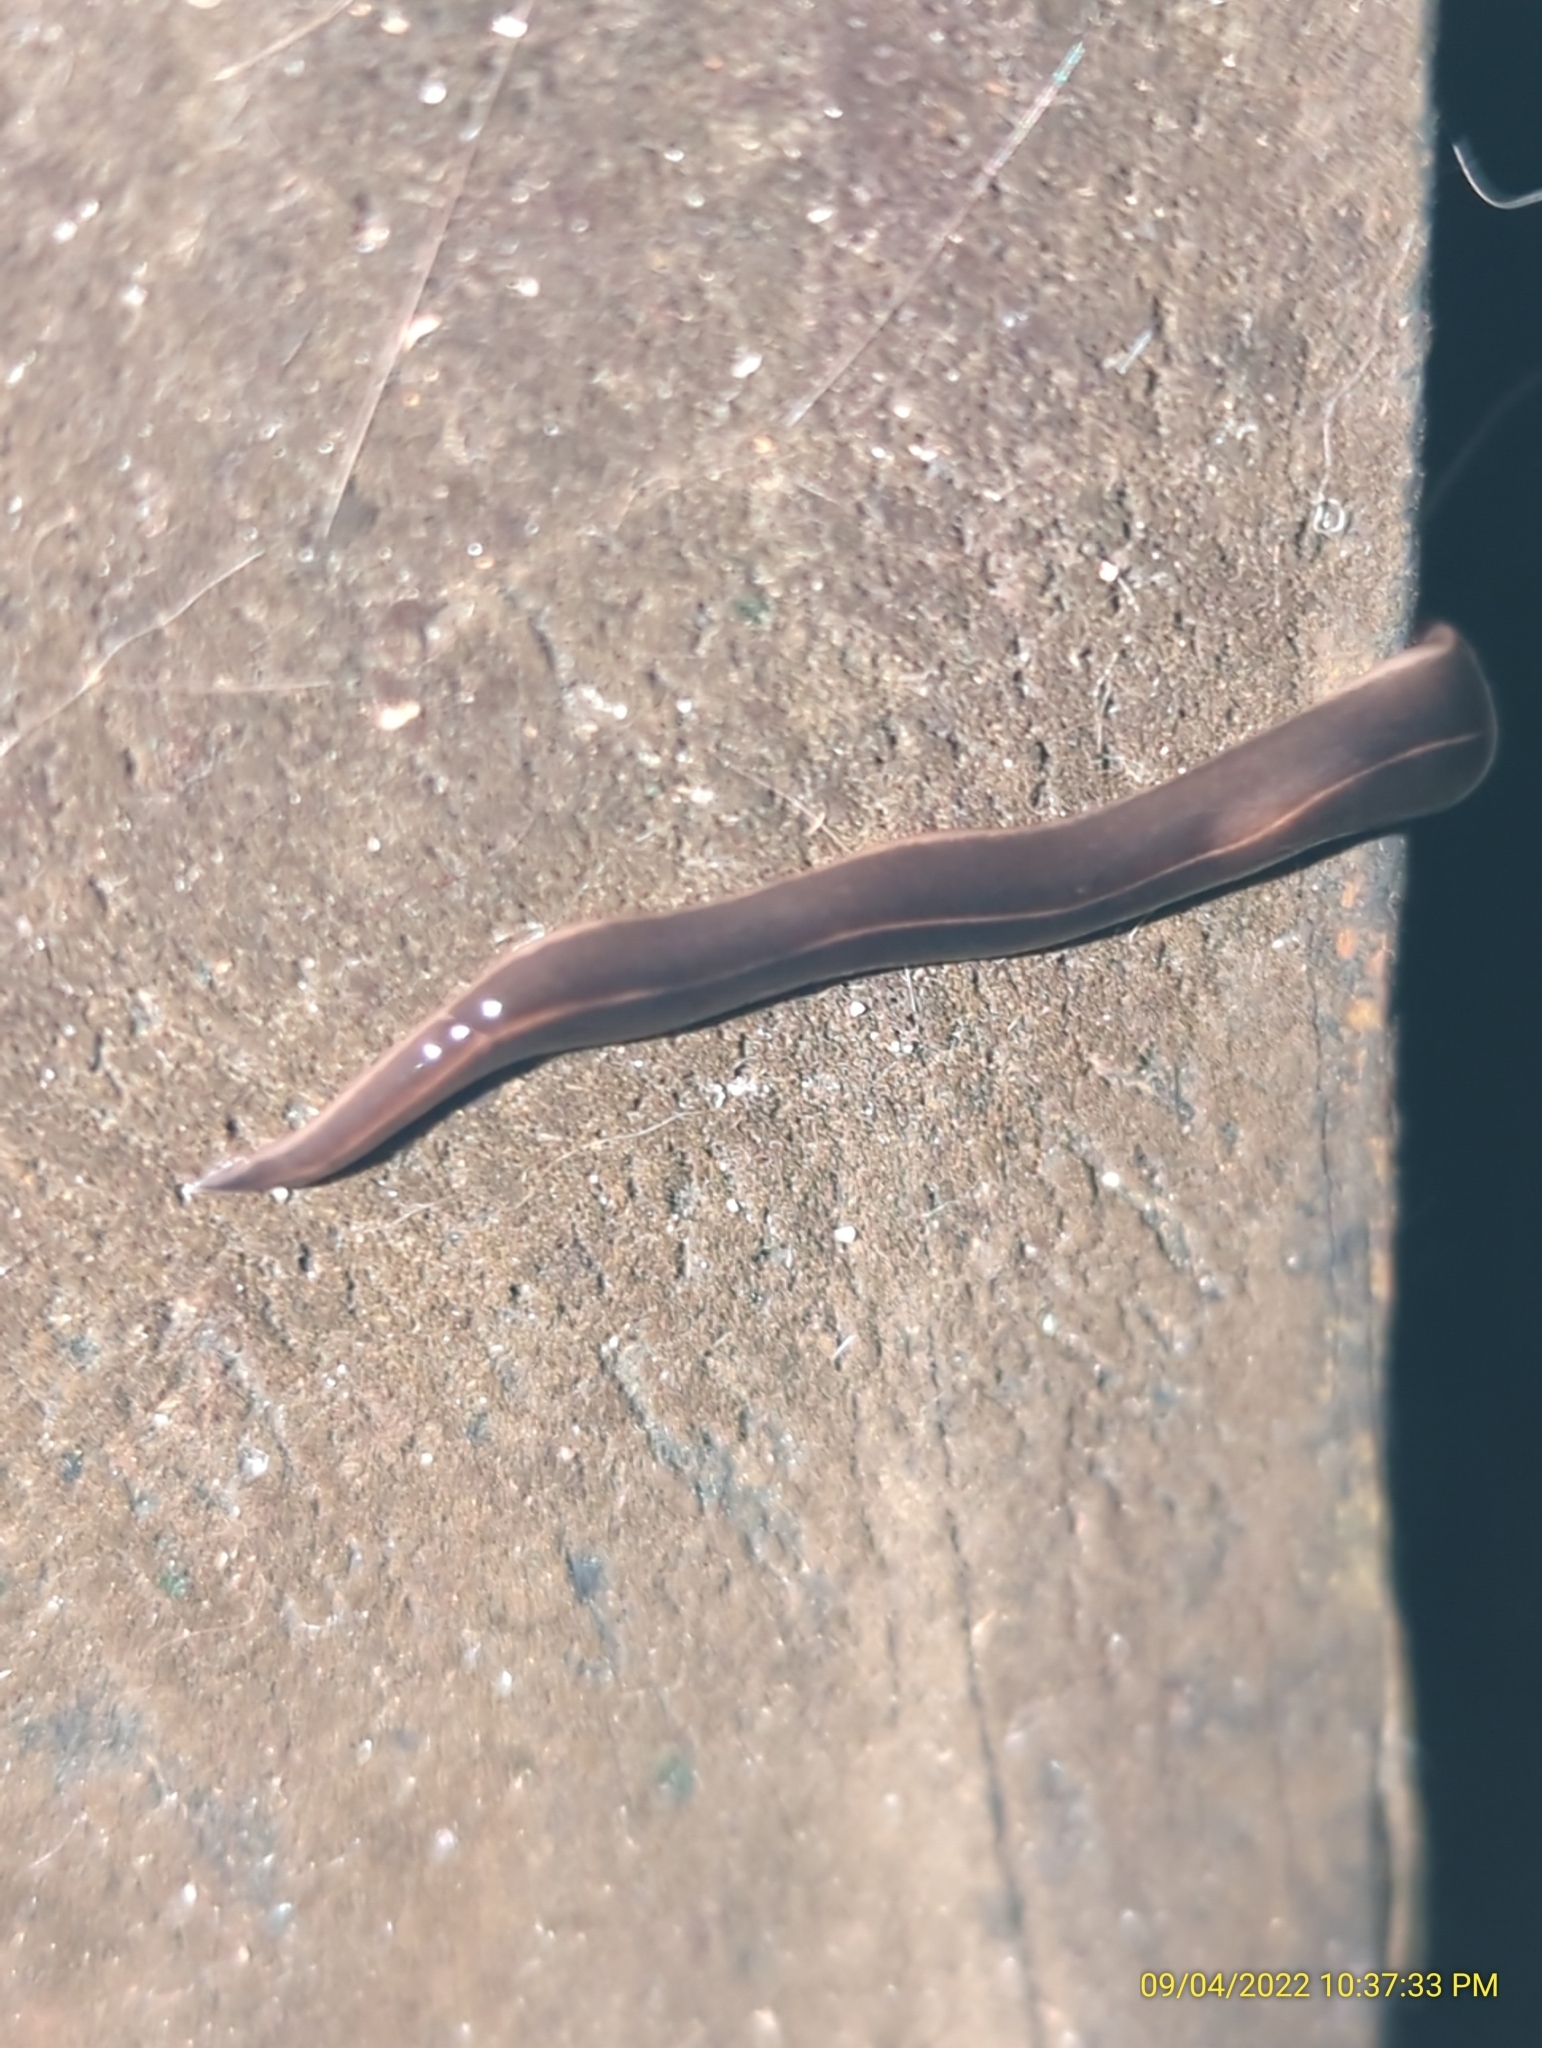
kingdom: Animalia
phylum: Platyhelminthes
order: Tricladida
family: Geoplanidae
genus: Platydemus
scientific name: Platydemus manokwari
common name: New guinea flatworm
